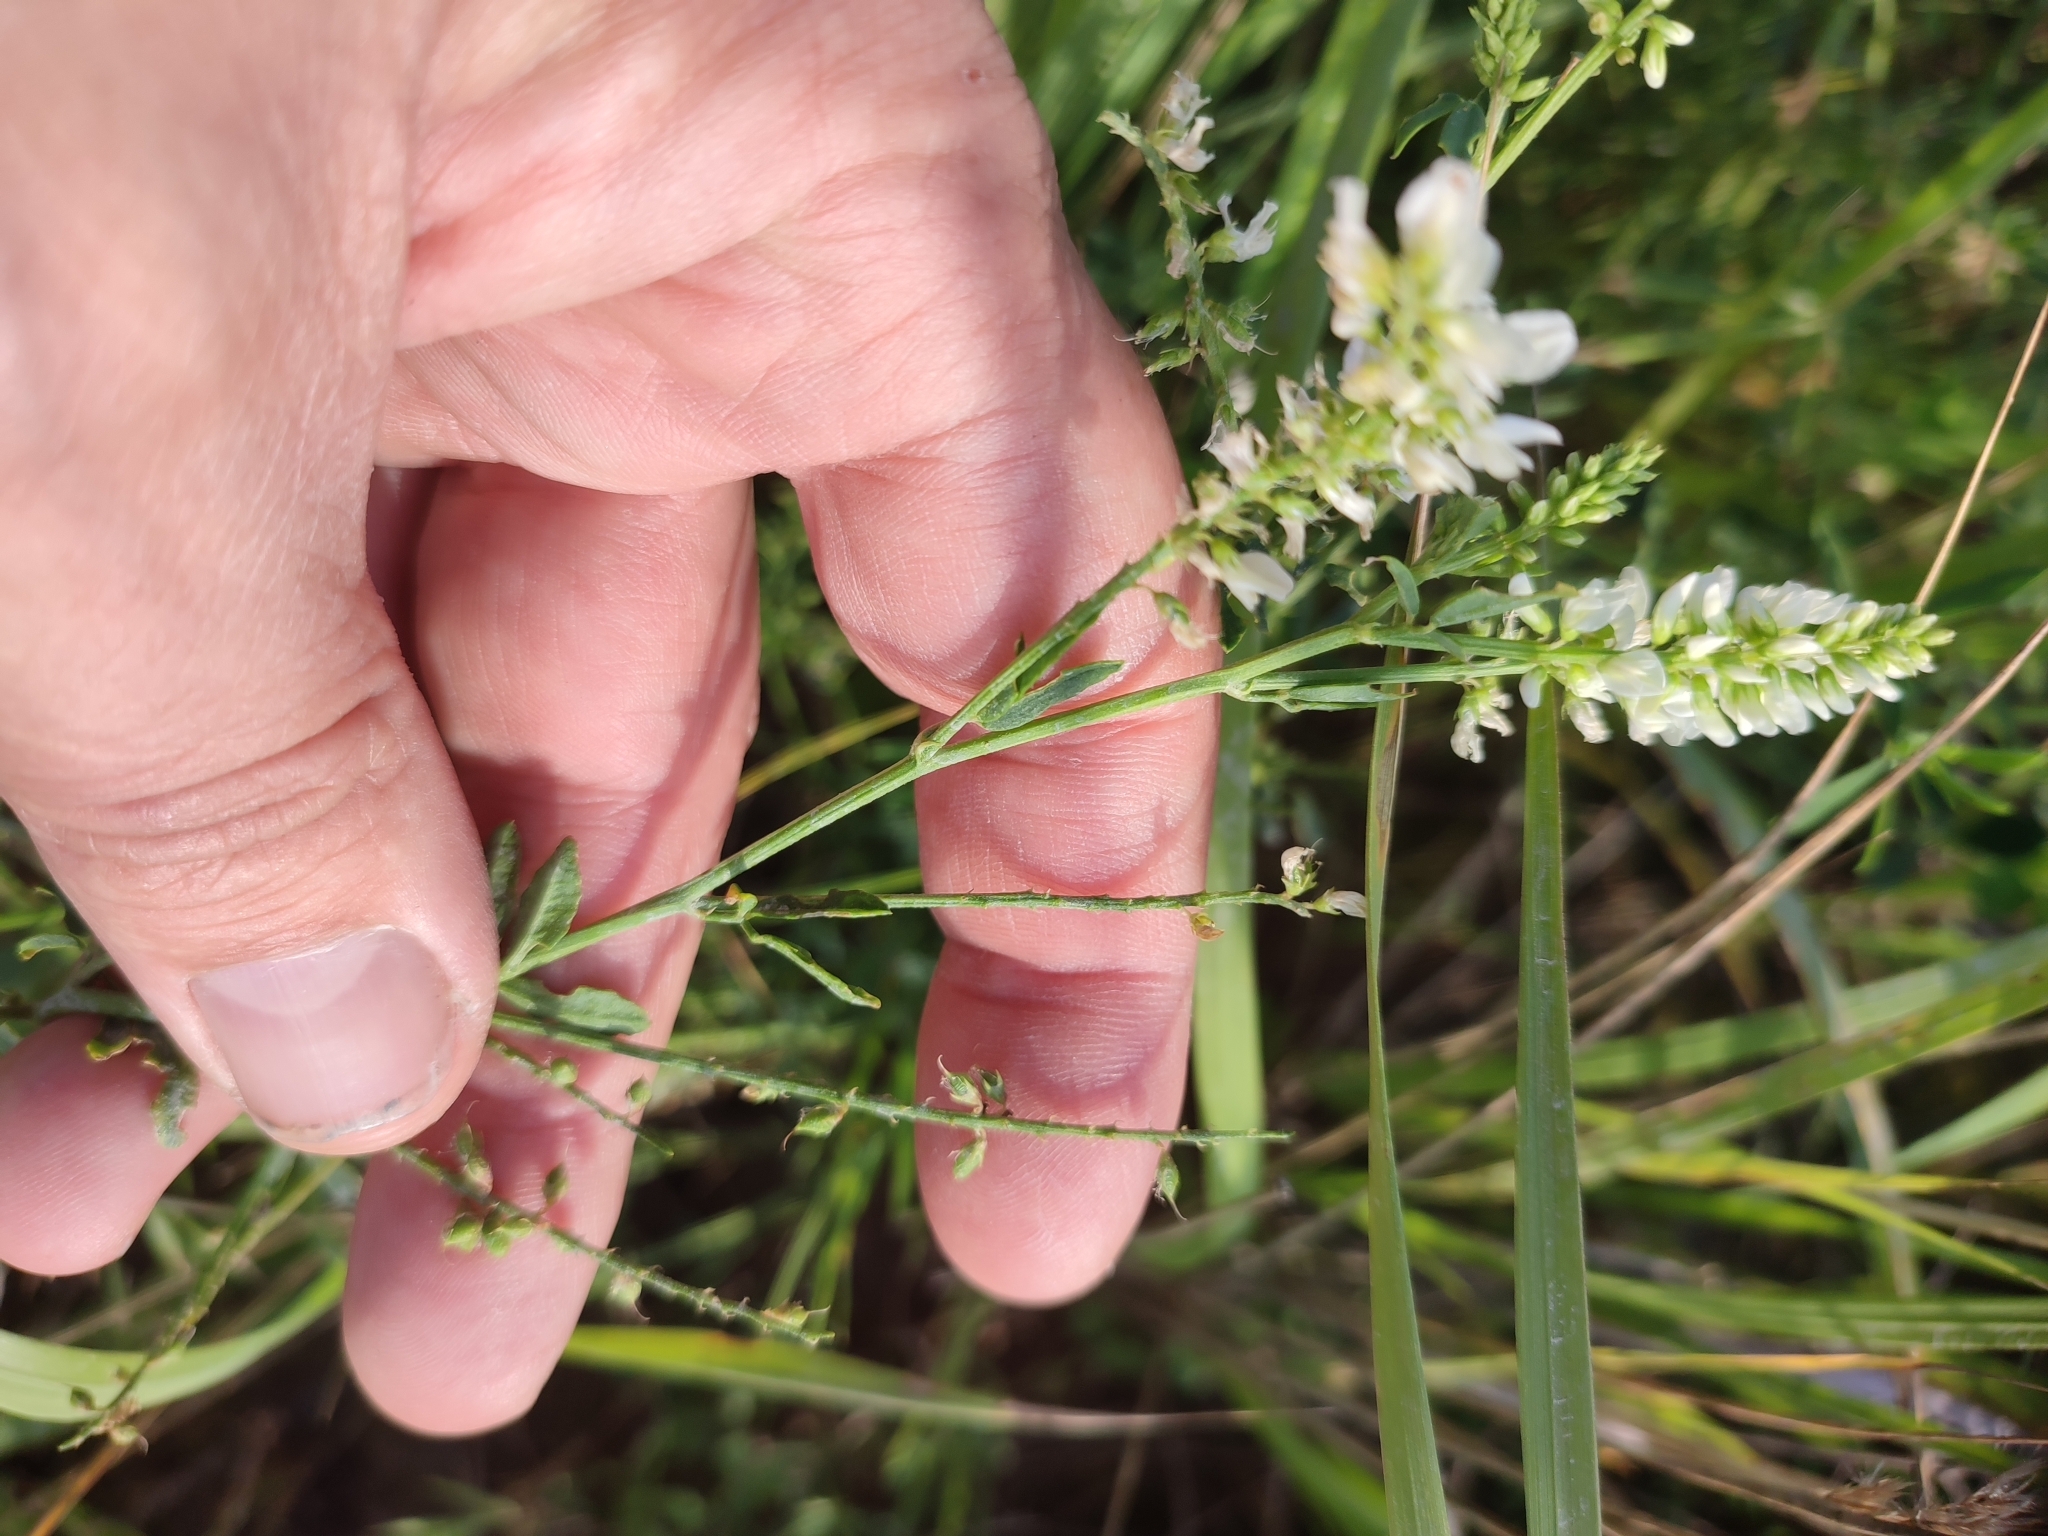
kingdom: Plantae
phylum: Tracheophyta
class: Magnoliopsida
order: Fabales
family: Fabaceae
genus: Melilotus
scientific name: Melilotus albus
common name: White melilot
